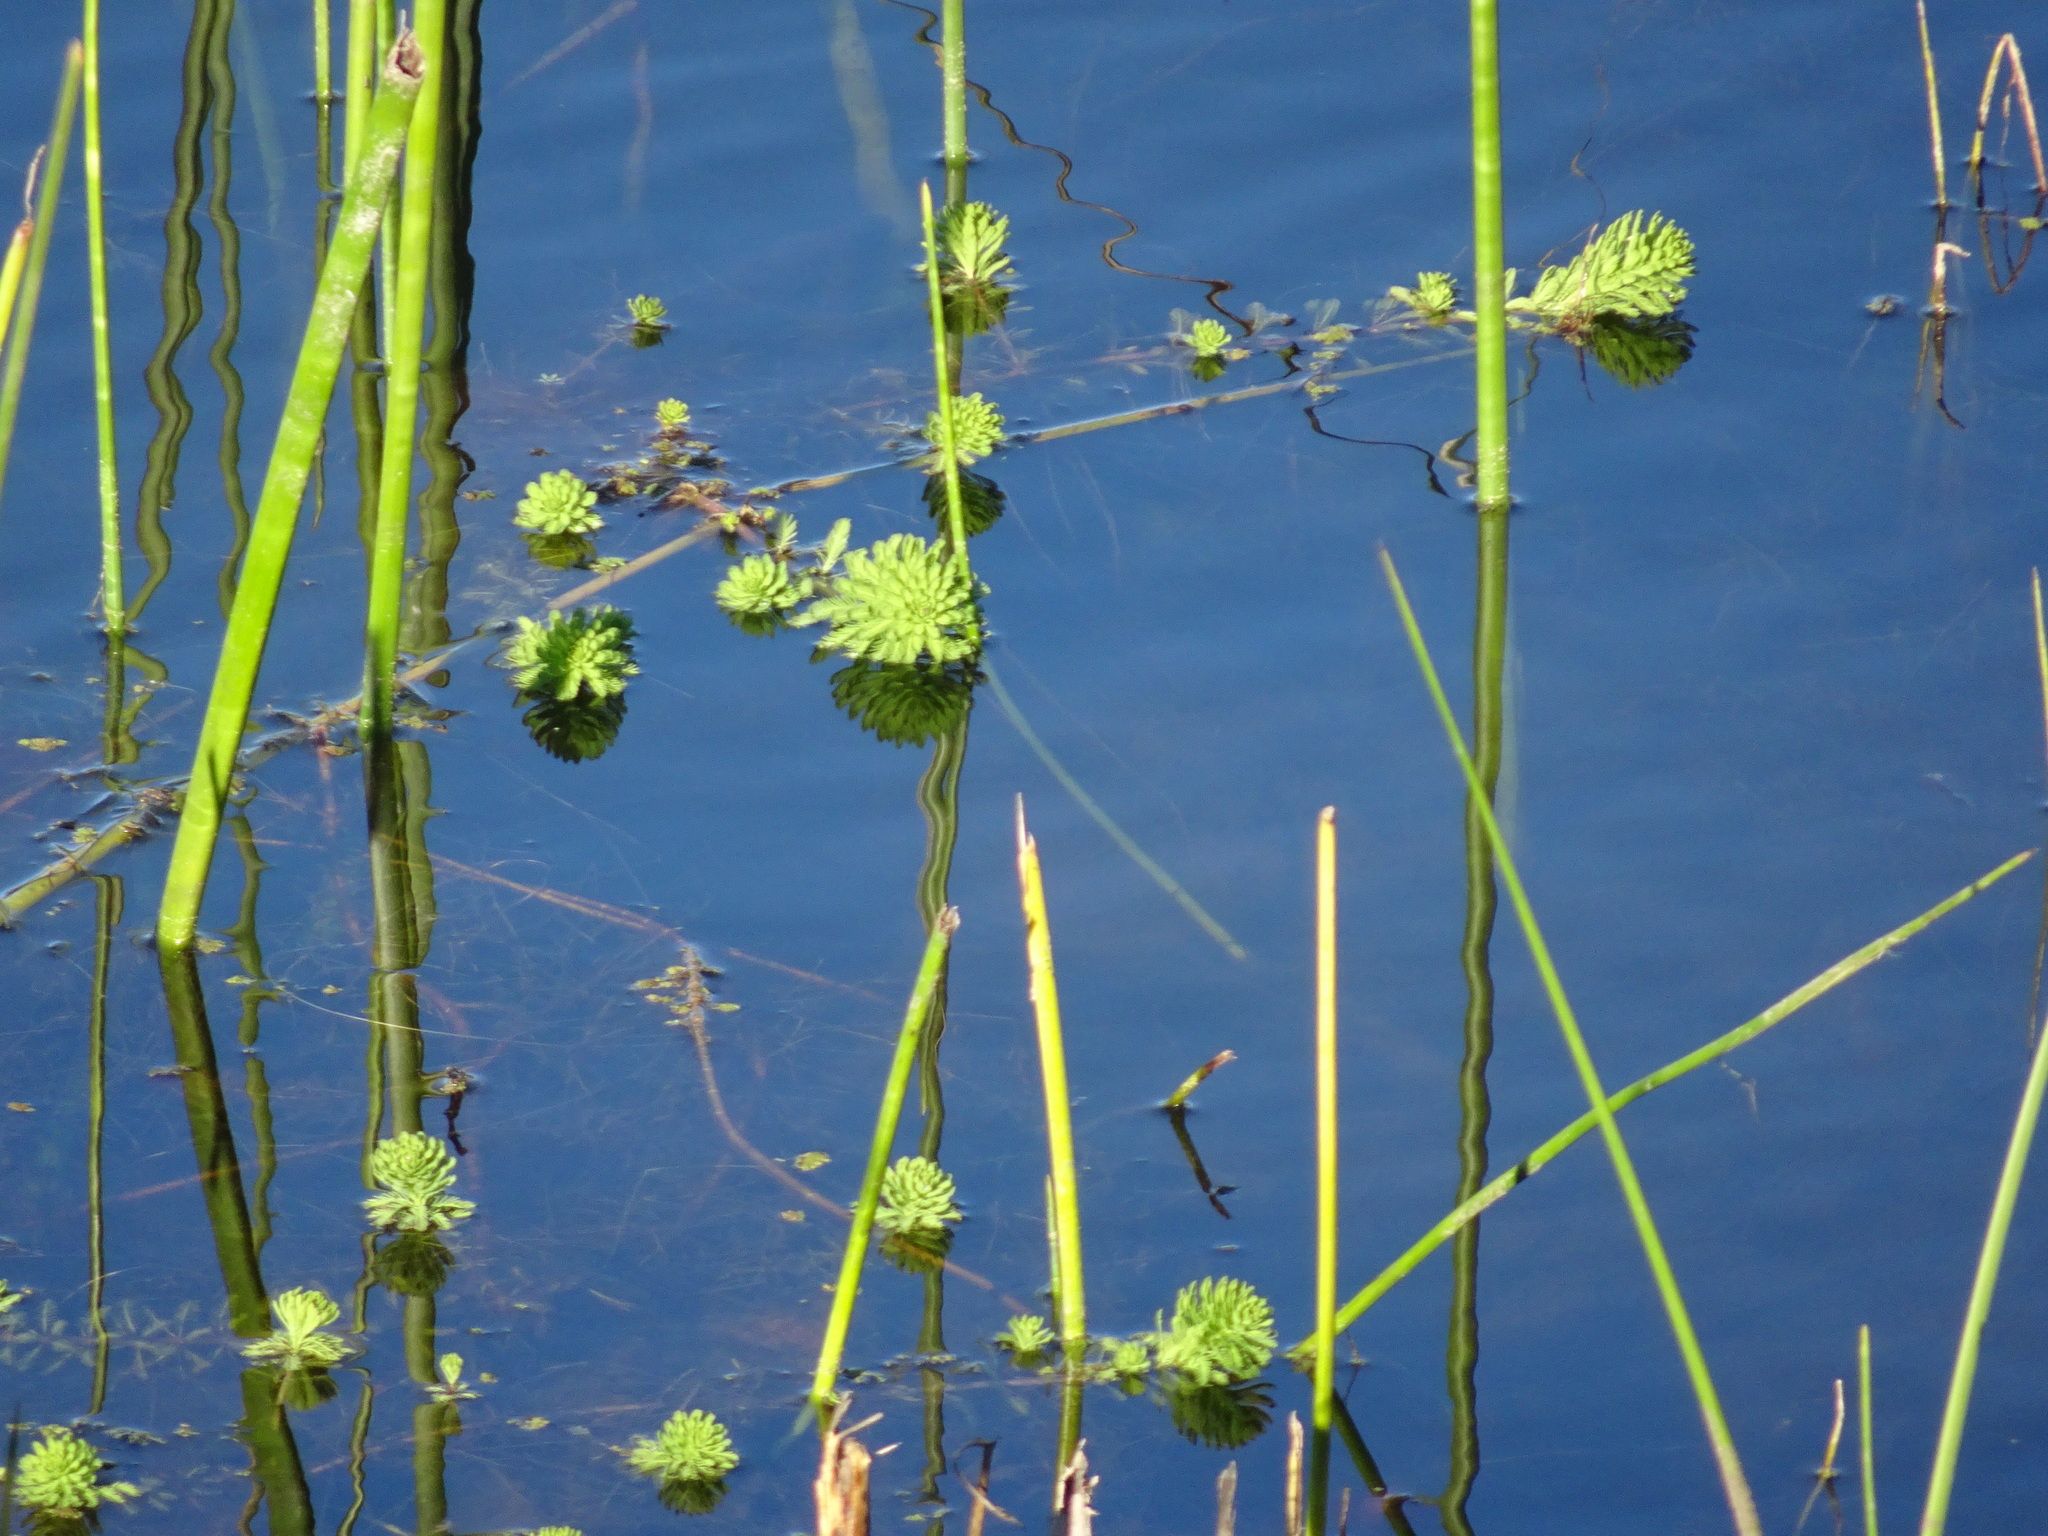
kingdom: Plantae
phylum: Tracheophyta
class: Magnoliopsida
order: Saxifragales
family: Haloragaceae
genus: Myriophyllum
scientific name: Myriophyllum aquaticum
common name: Parrot's feather
